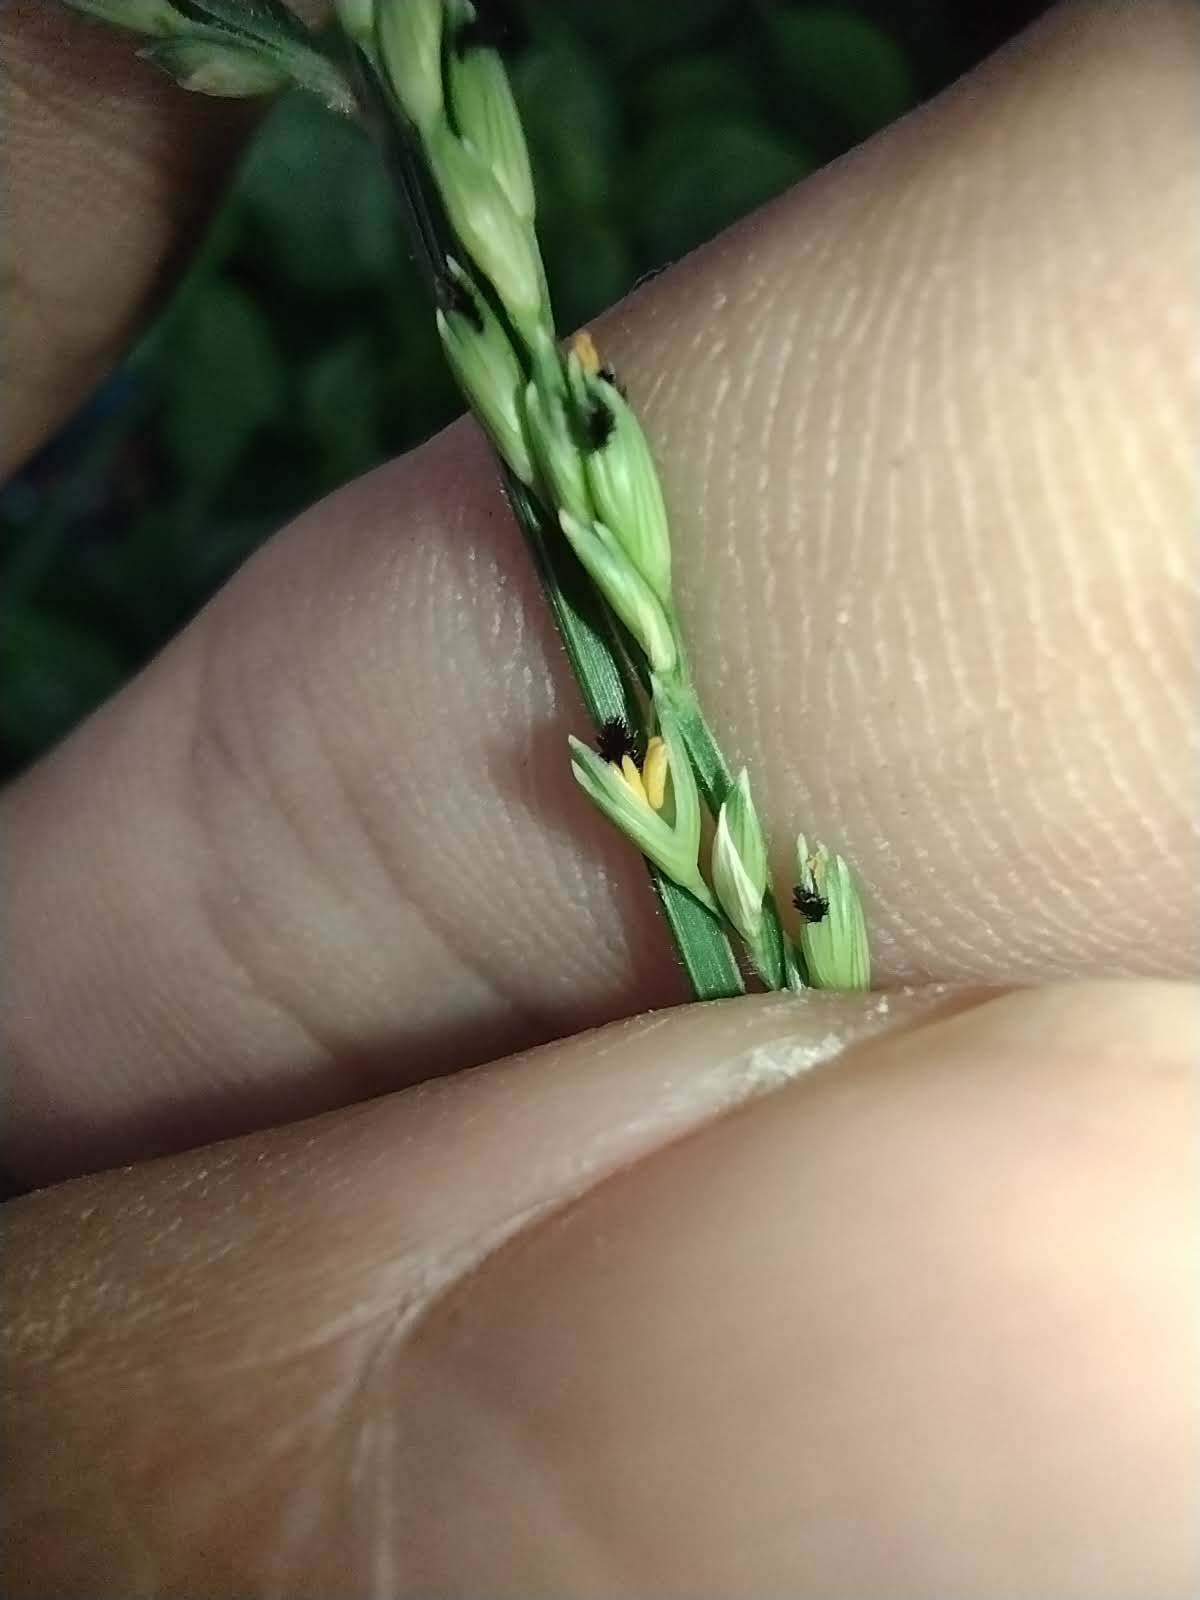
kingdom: Plantae
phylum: Tracheophyta
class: Liliopsida
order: Poales
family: Poaceae
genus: Urochloa
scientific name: Urochloa glumaris
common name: Thurston grass
